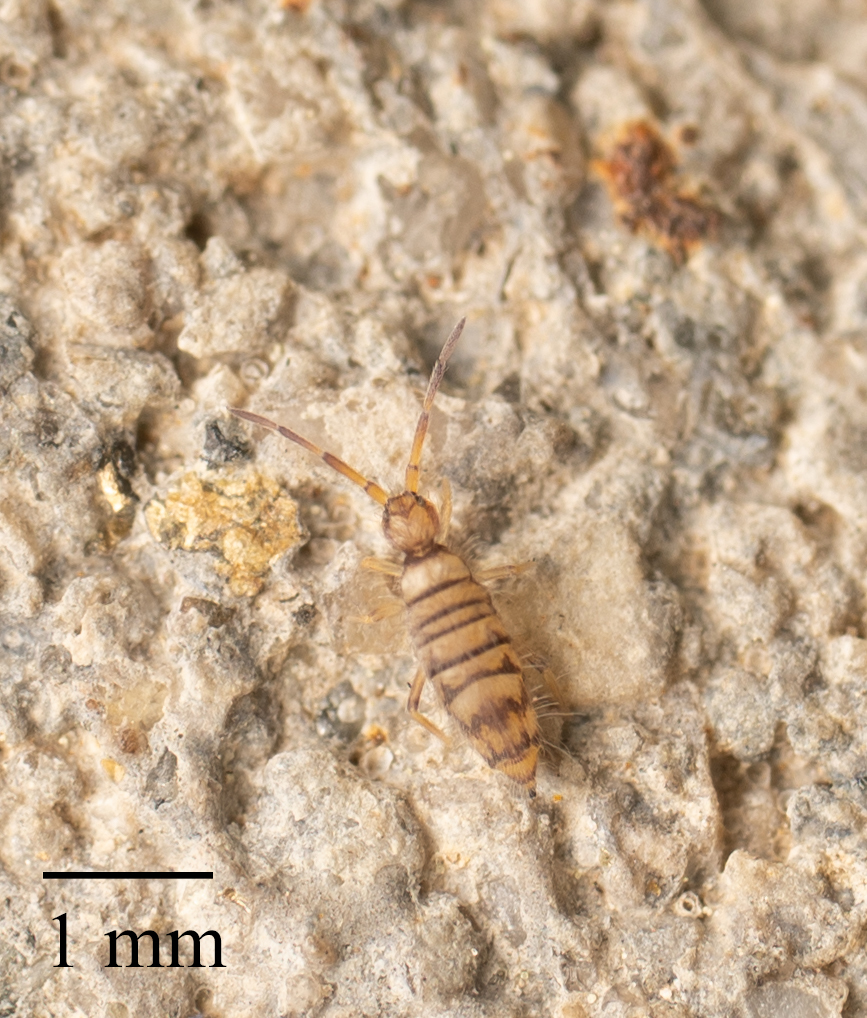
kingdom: Animalia
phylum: Arthropoda
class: Collembola
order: Entomobryomorpha
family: Entomobryidae
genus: Entomobrya
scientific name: Entomobrya atrocincta
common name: Springtail
